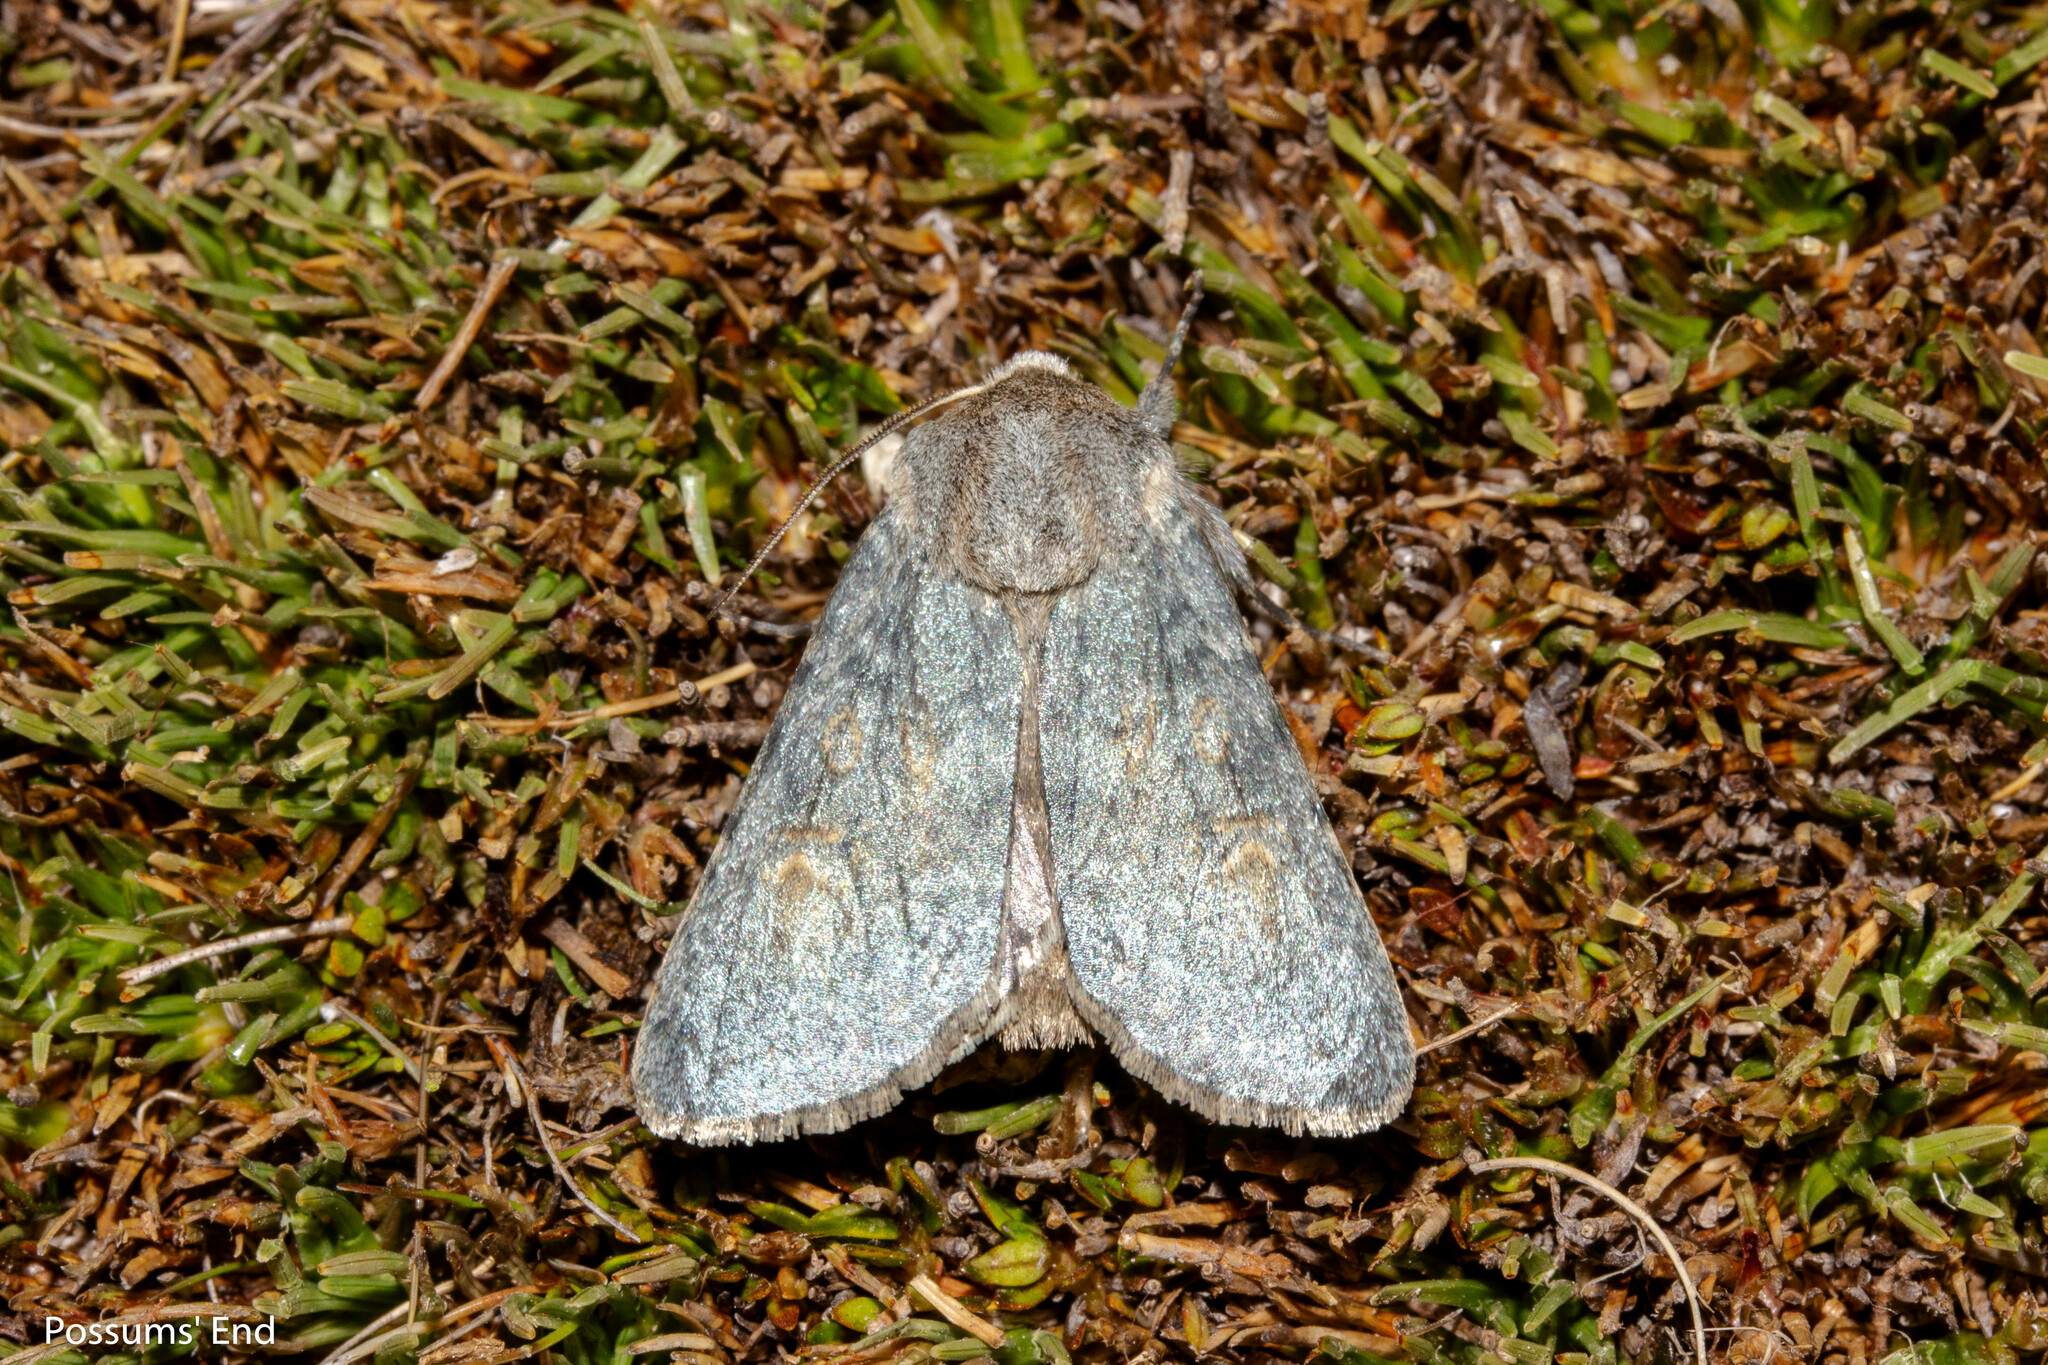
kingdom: Animalia
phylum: Arthropoda
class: Insecta
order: Lepidoptera
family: Noctuidae
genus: Ichneutica
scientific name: Ichneutica
